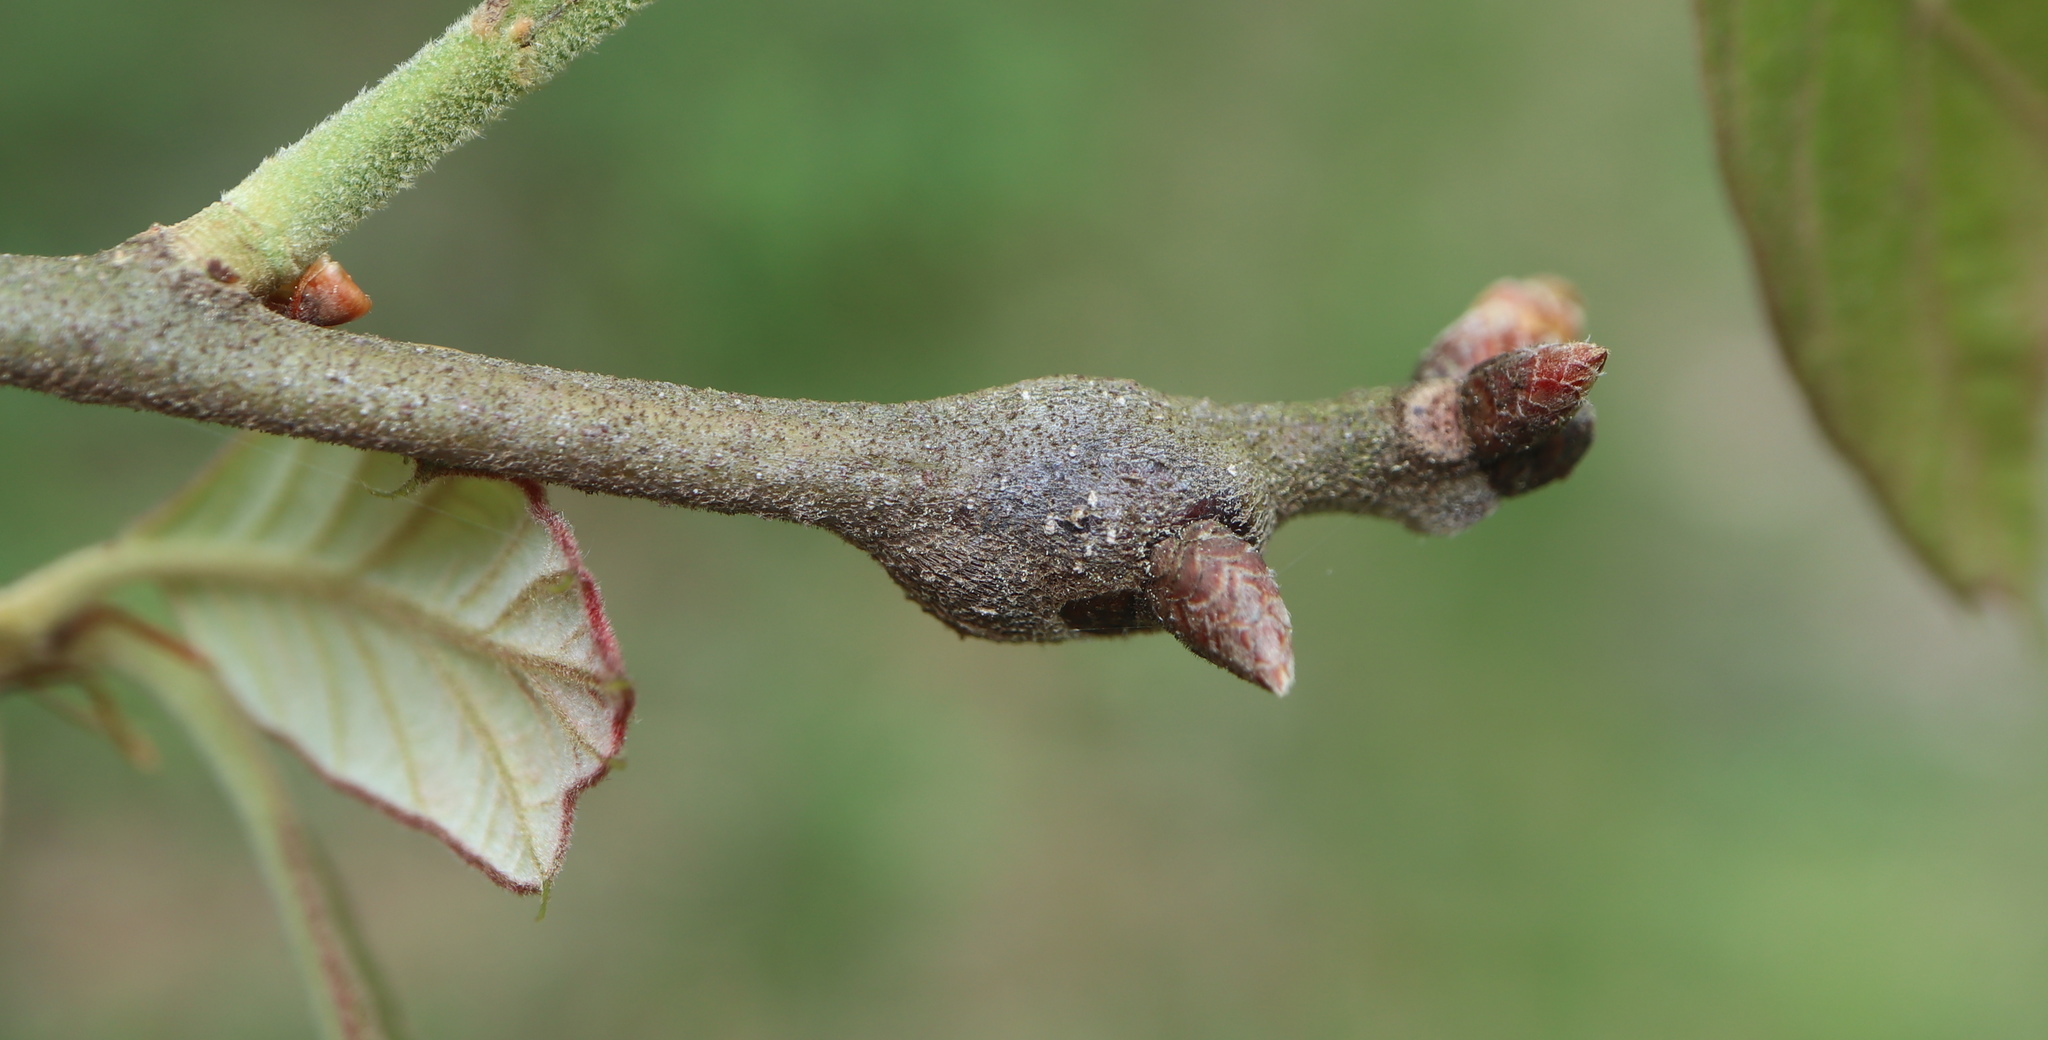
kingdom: Animalia
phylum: Arthropoda
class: Insecta
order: Hymenoptera
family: Cynipidae
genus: Zapatella
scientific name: Zapatella quercusphellos
